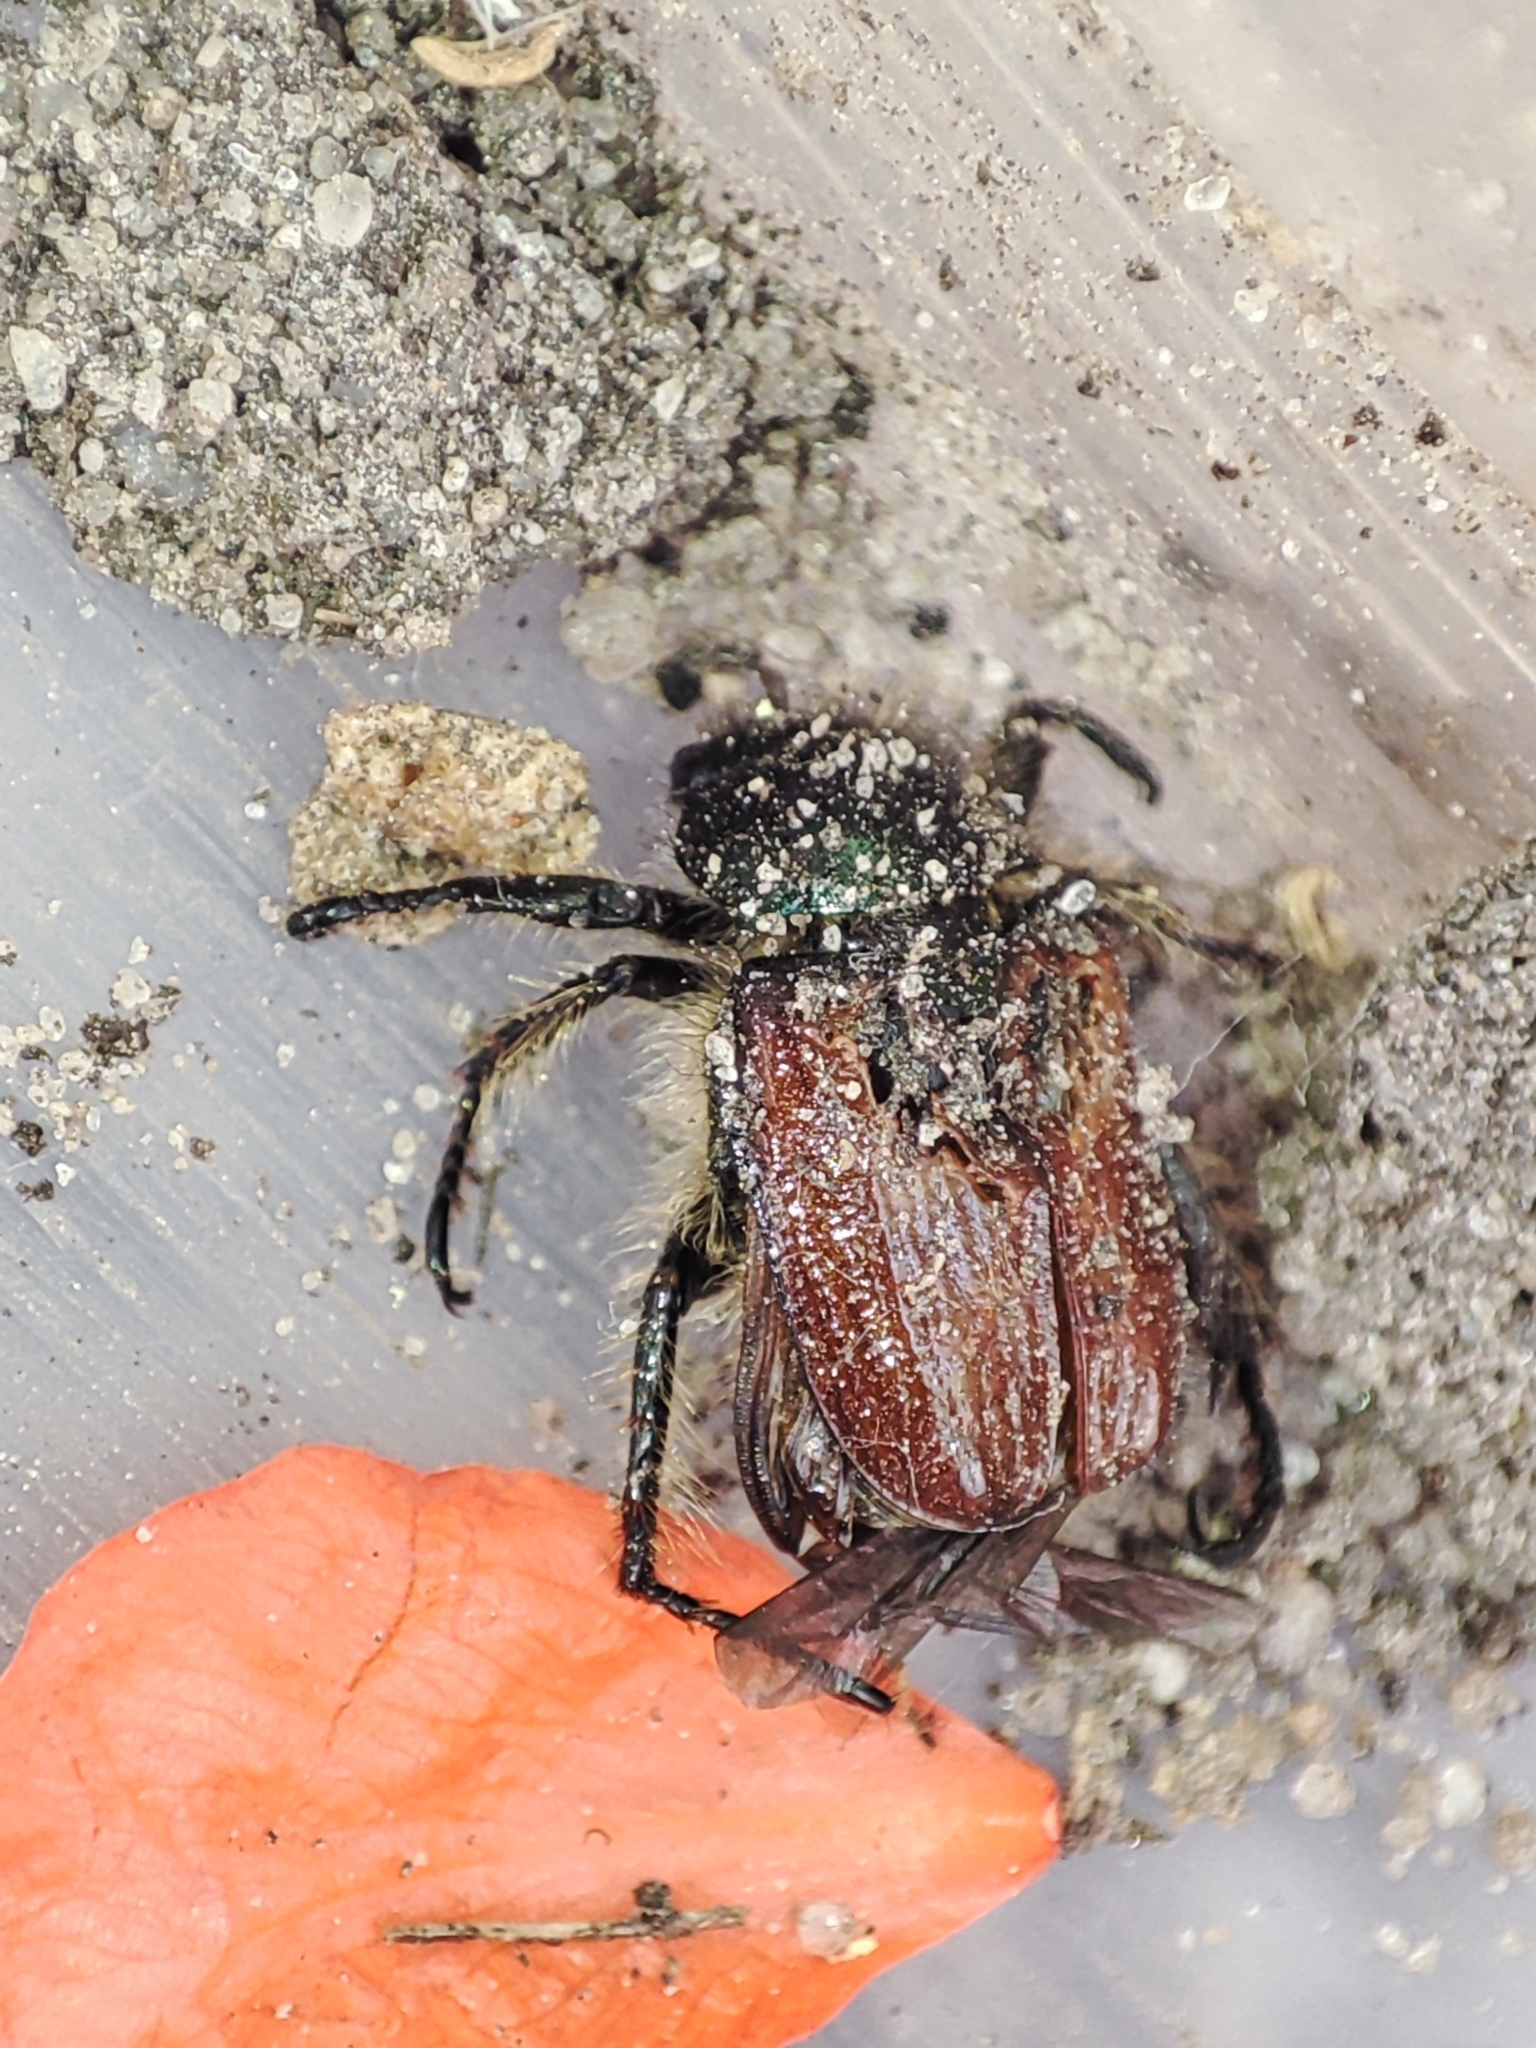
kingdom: Animalia
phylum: Arthropoda
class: Insecta
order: Coleoptera
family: Scarabaeidae
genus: Phyllopertha
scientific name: Phyllopertha horticola
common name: Garden chafer
